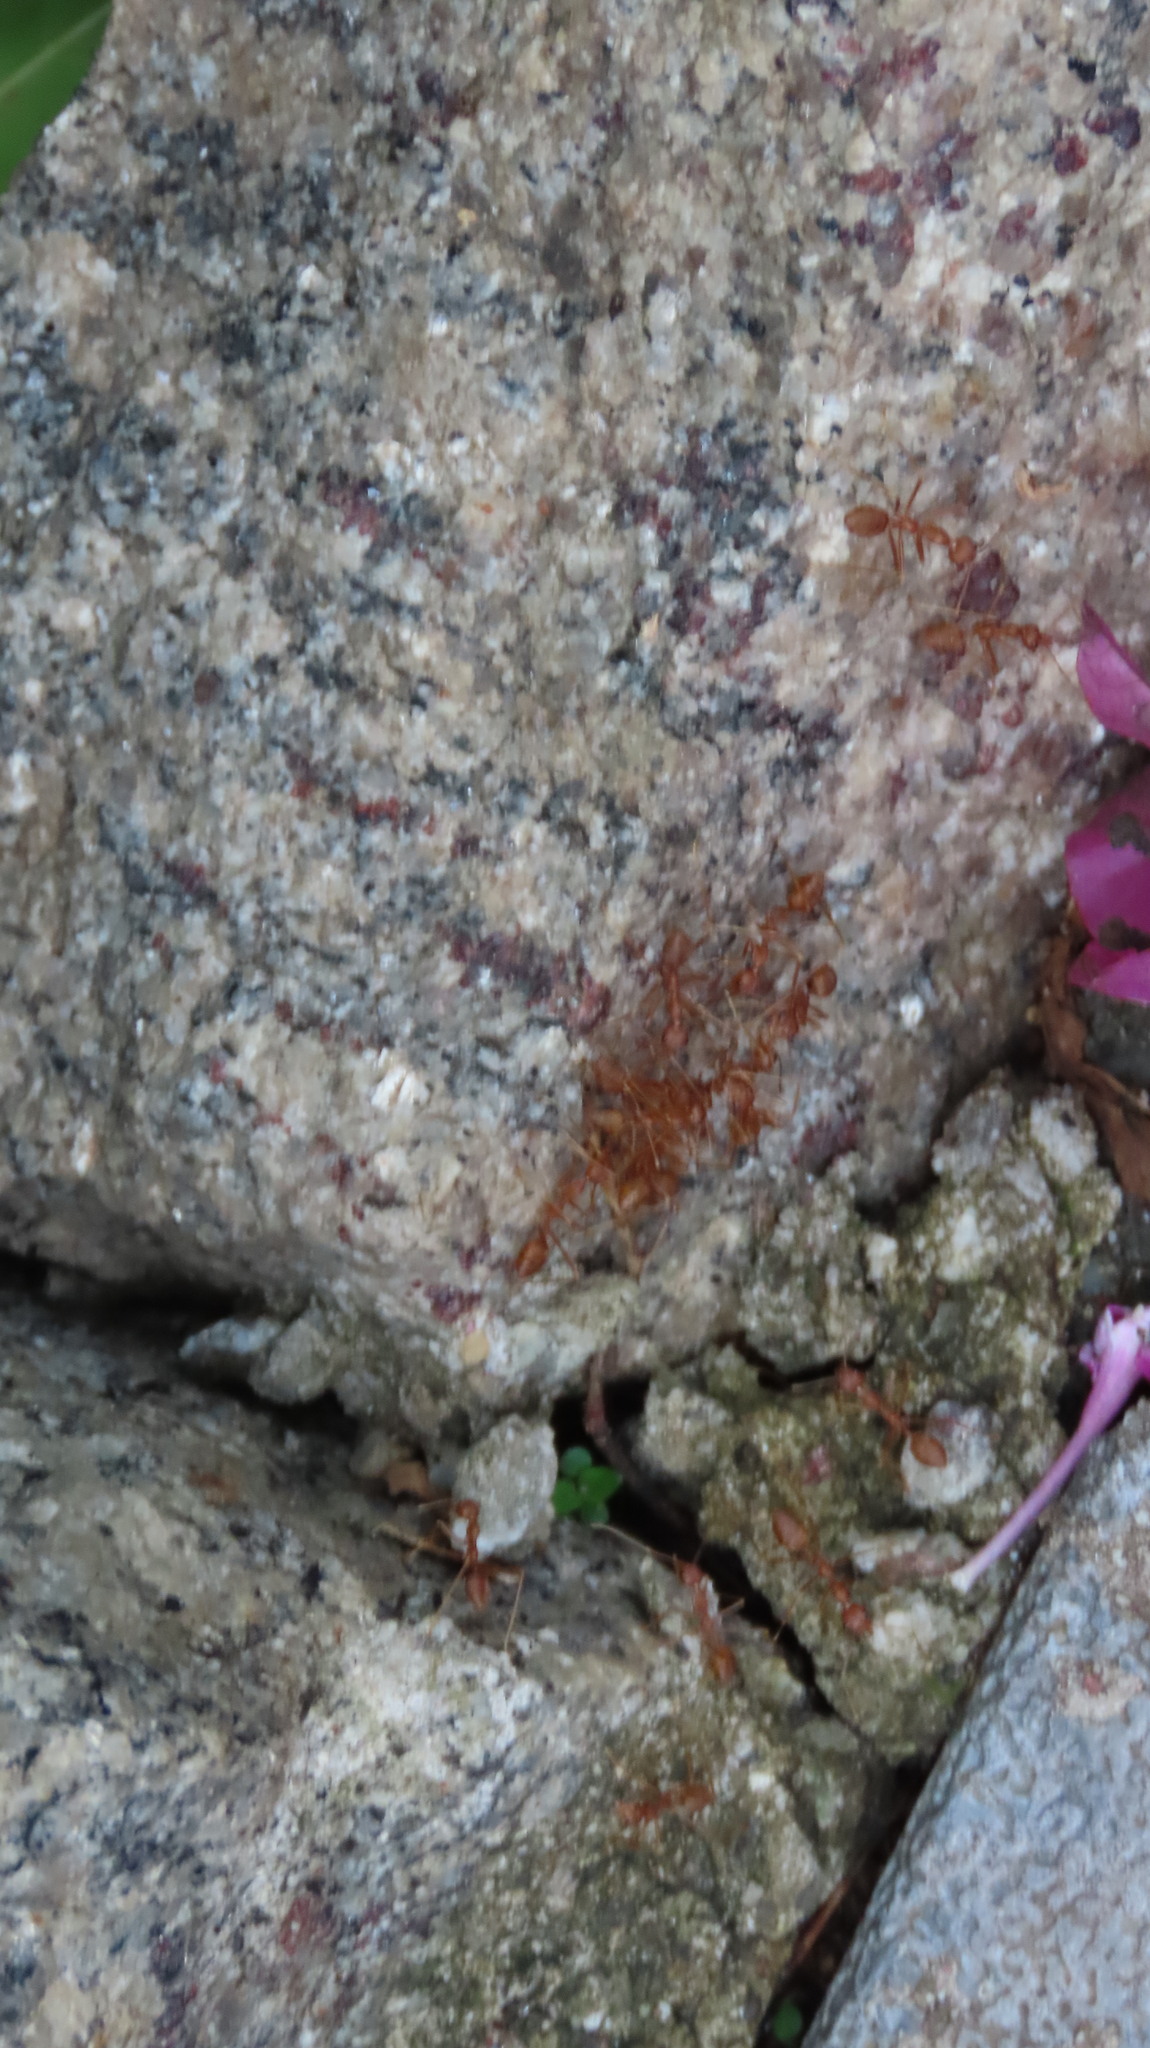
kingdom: Animalia
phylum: Arthropoda
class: Insecta
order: Hymenoptera
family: Formicidae
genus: Oecophylla
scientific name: Oecophylla smaragdina
